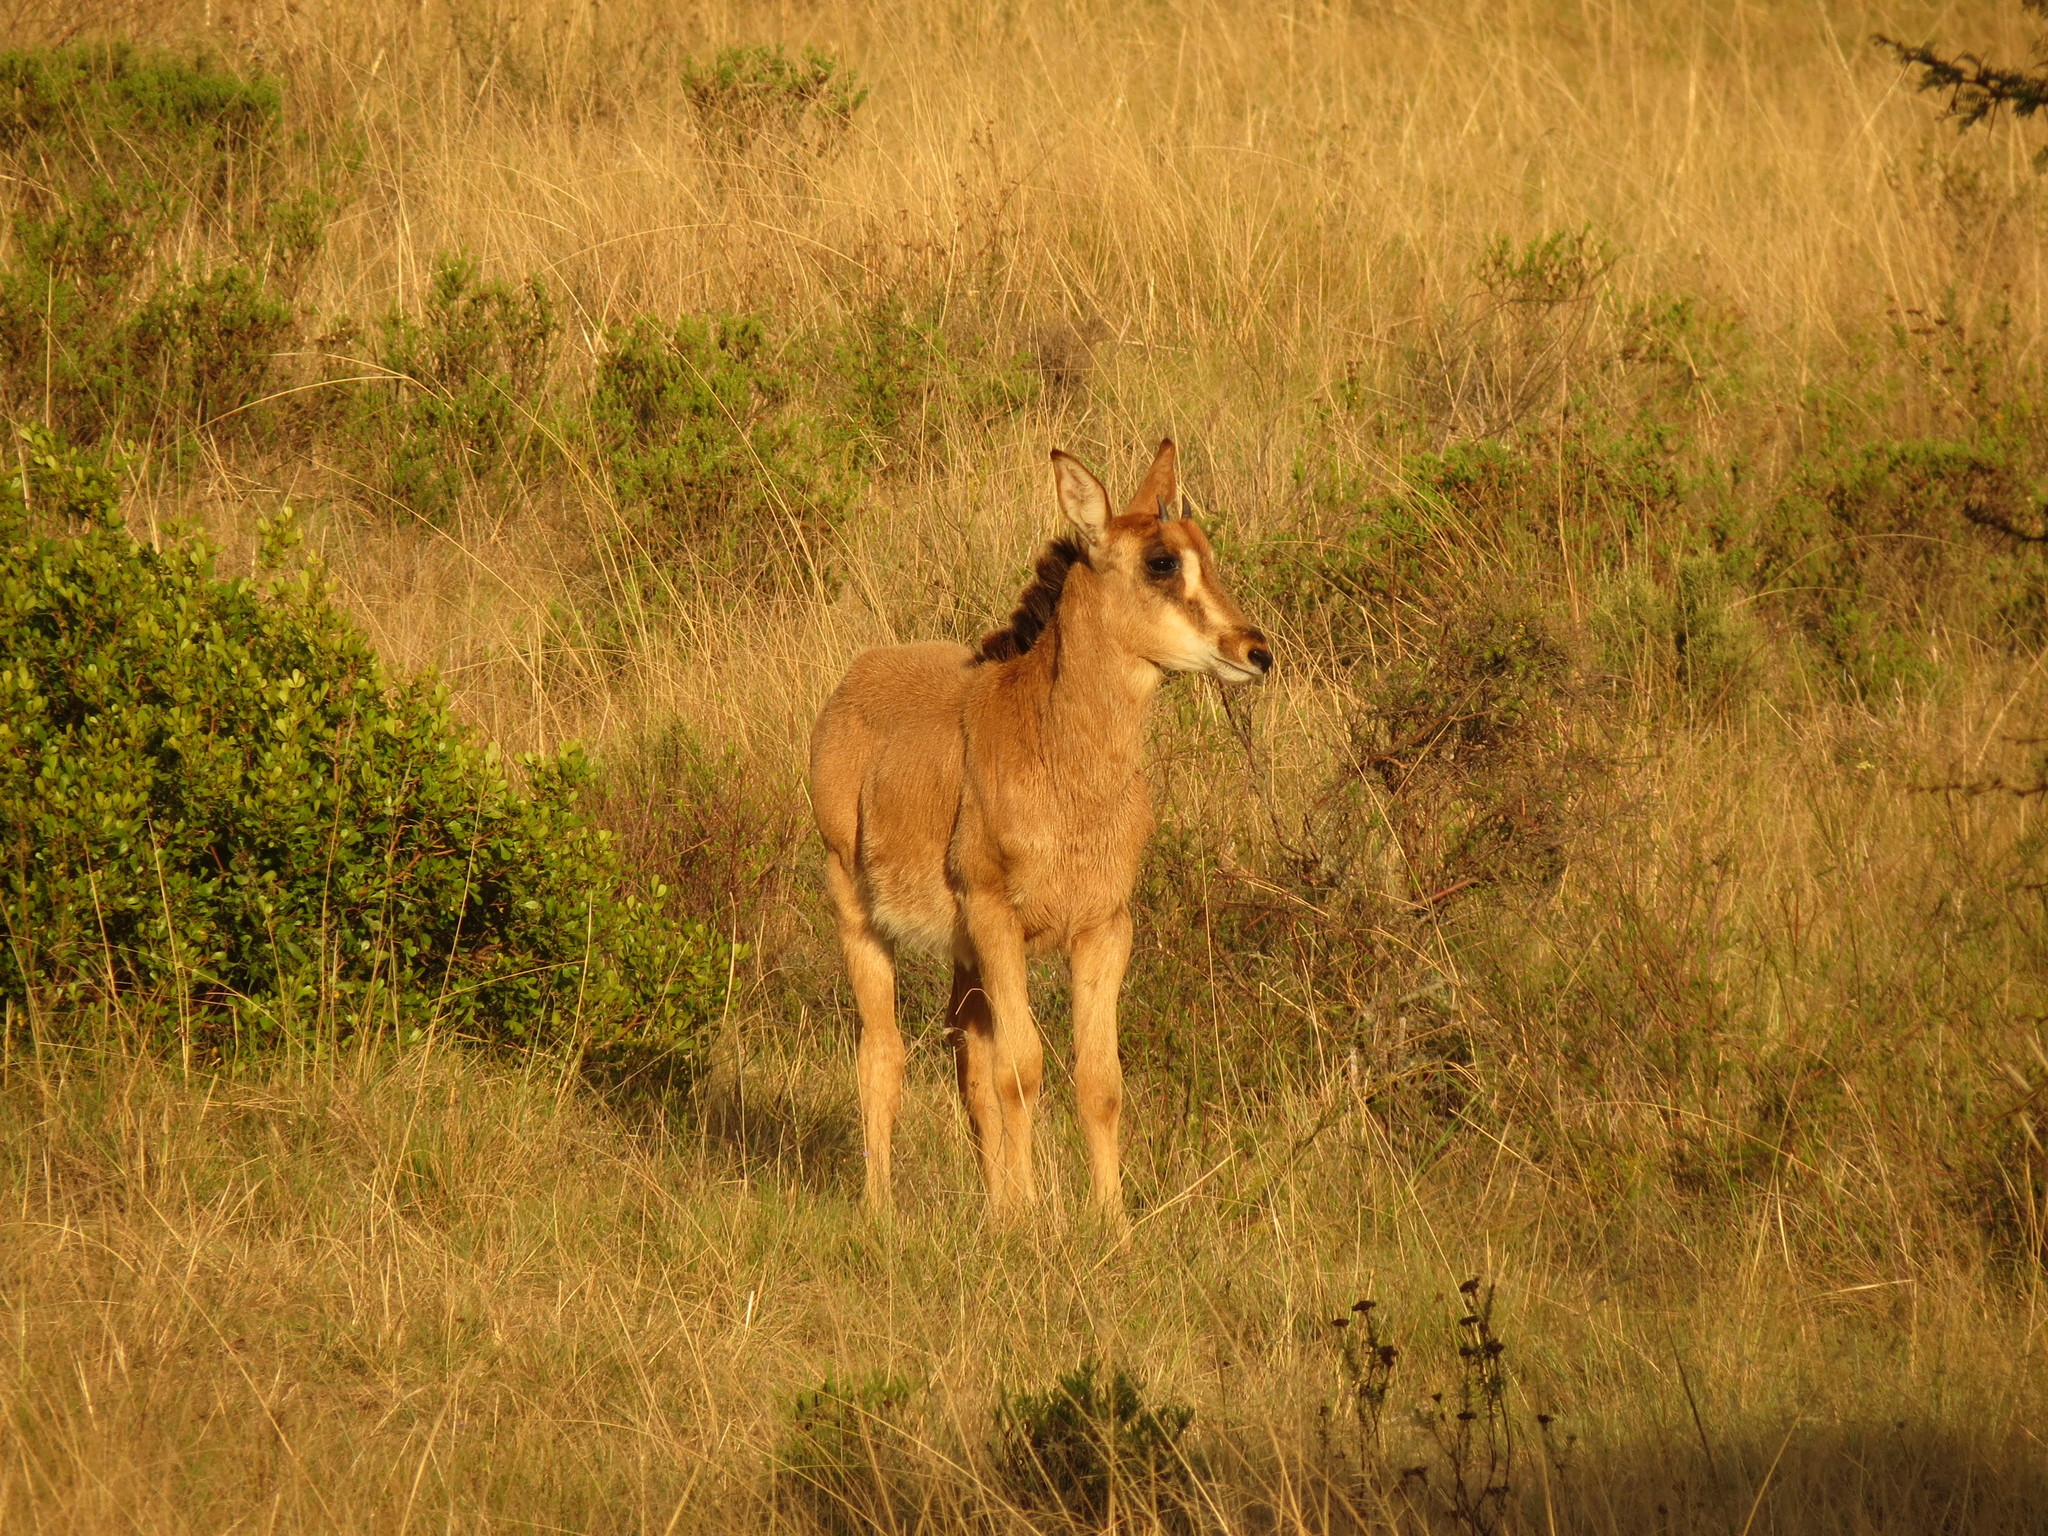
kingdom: Animalia
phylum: Chordata
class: Mammalia
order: Artiodactyla
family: Bovidae
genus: Hippotragus
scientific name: Hippotragus niger
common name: Sable antelope
